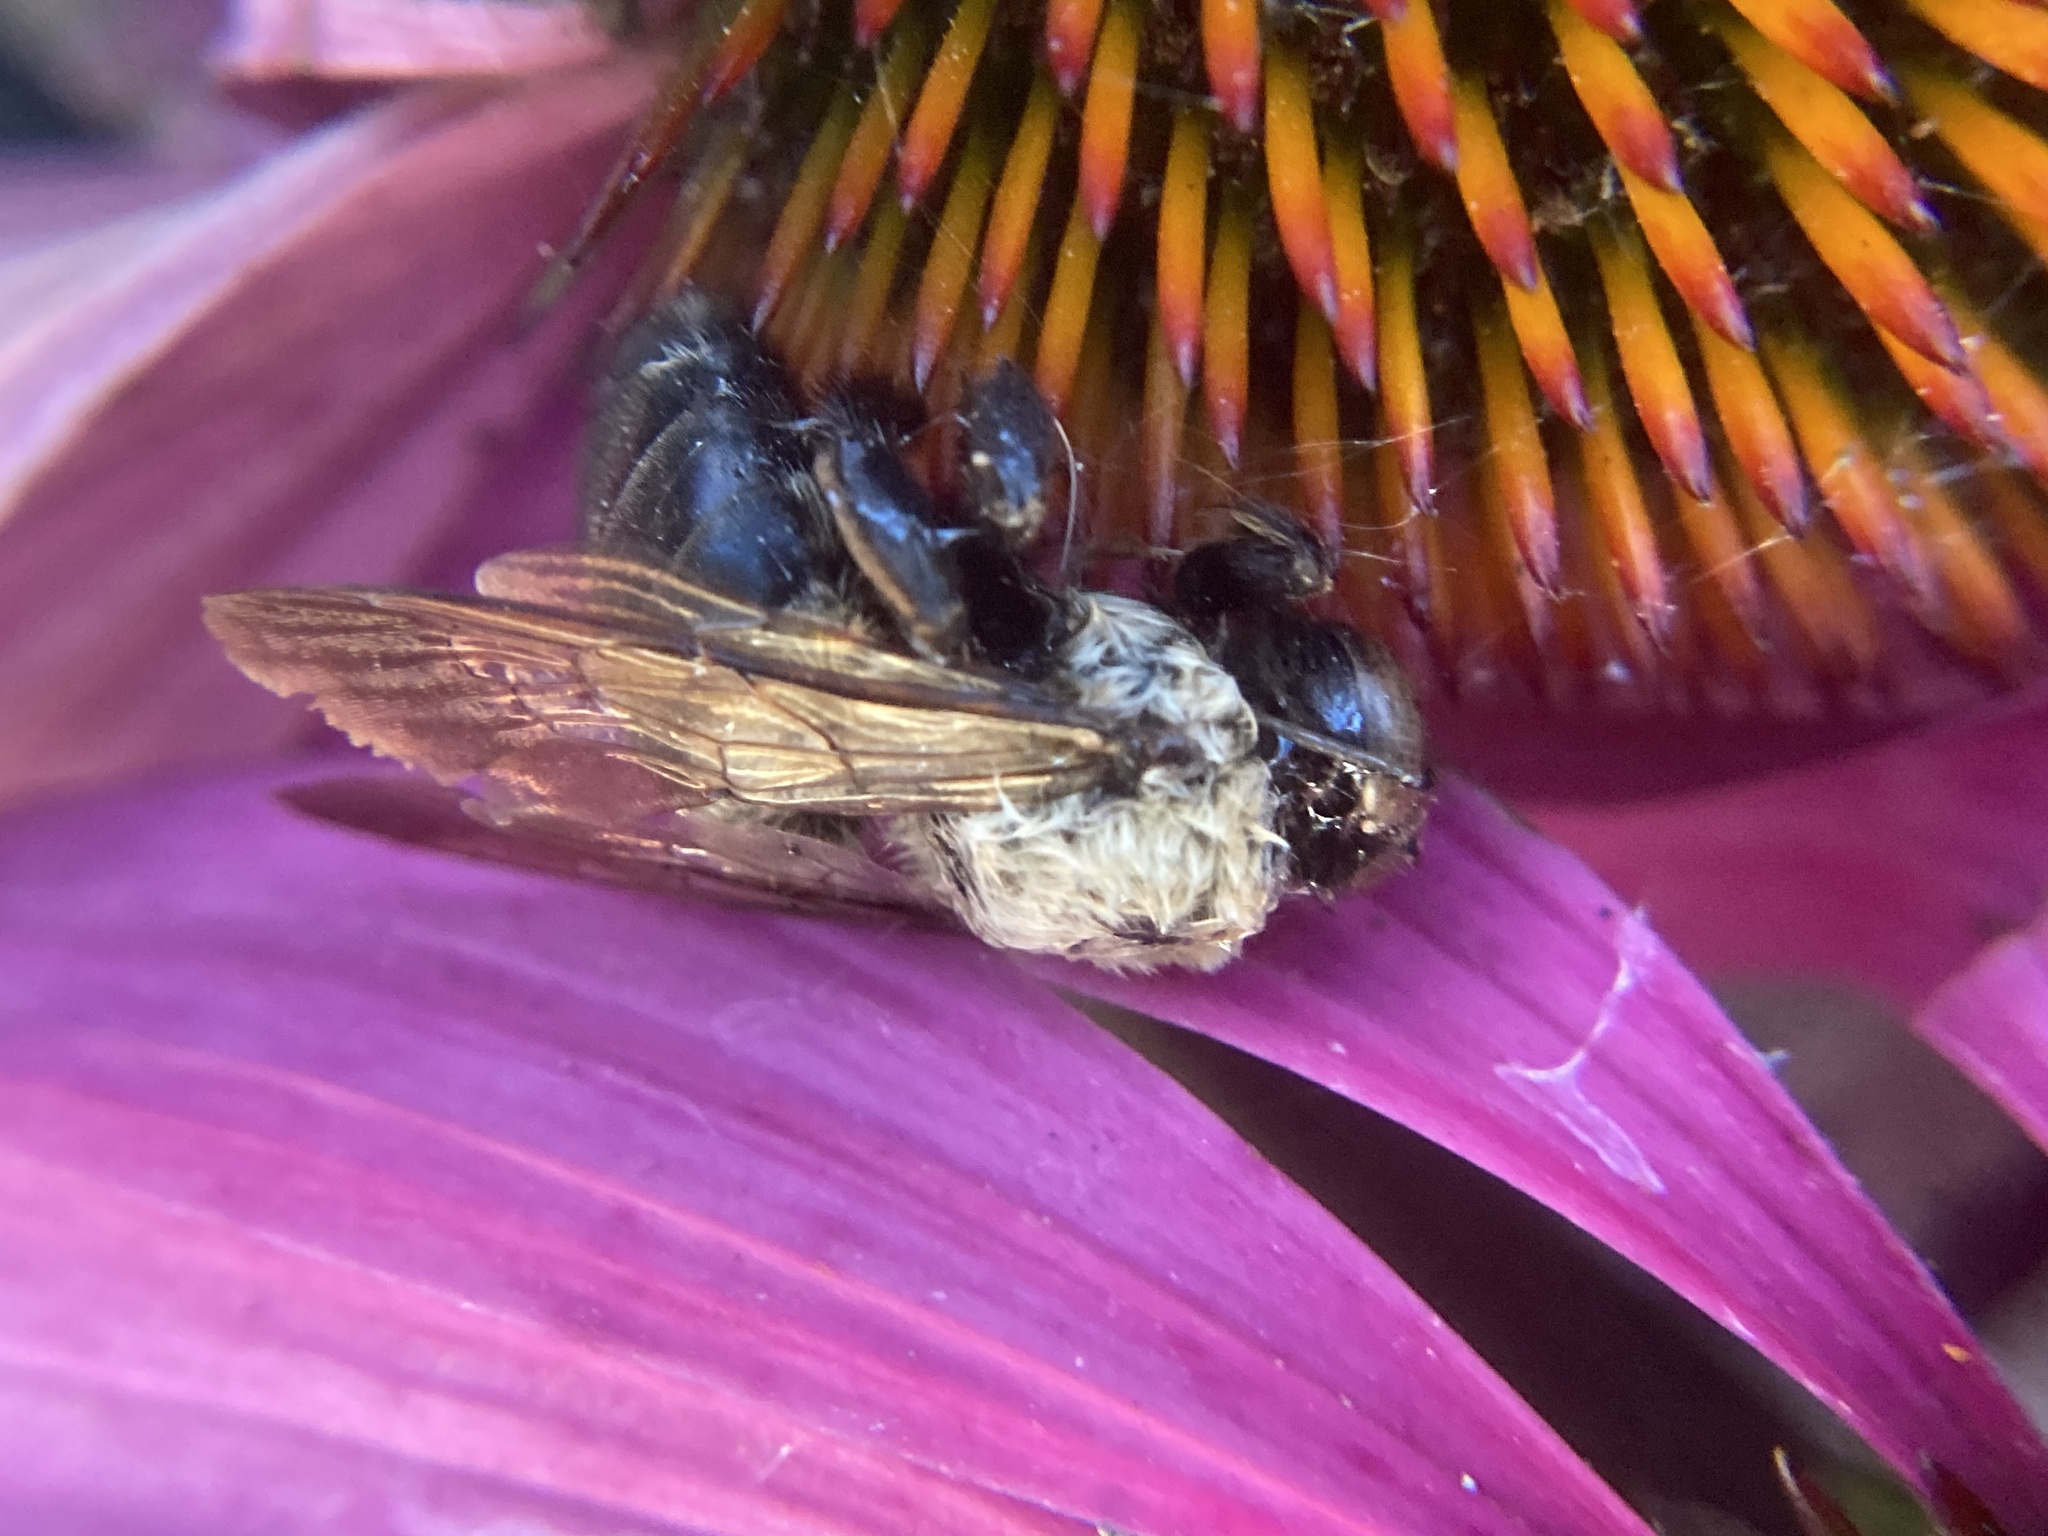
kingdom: Animalia
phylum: Arthropoda
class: Insecta
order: Hymenoptera
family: Apidae
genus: Xylocopa
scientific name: Xylocopa virginica
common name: Carpenter bee
